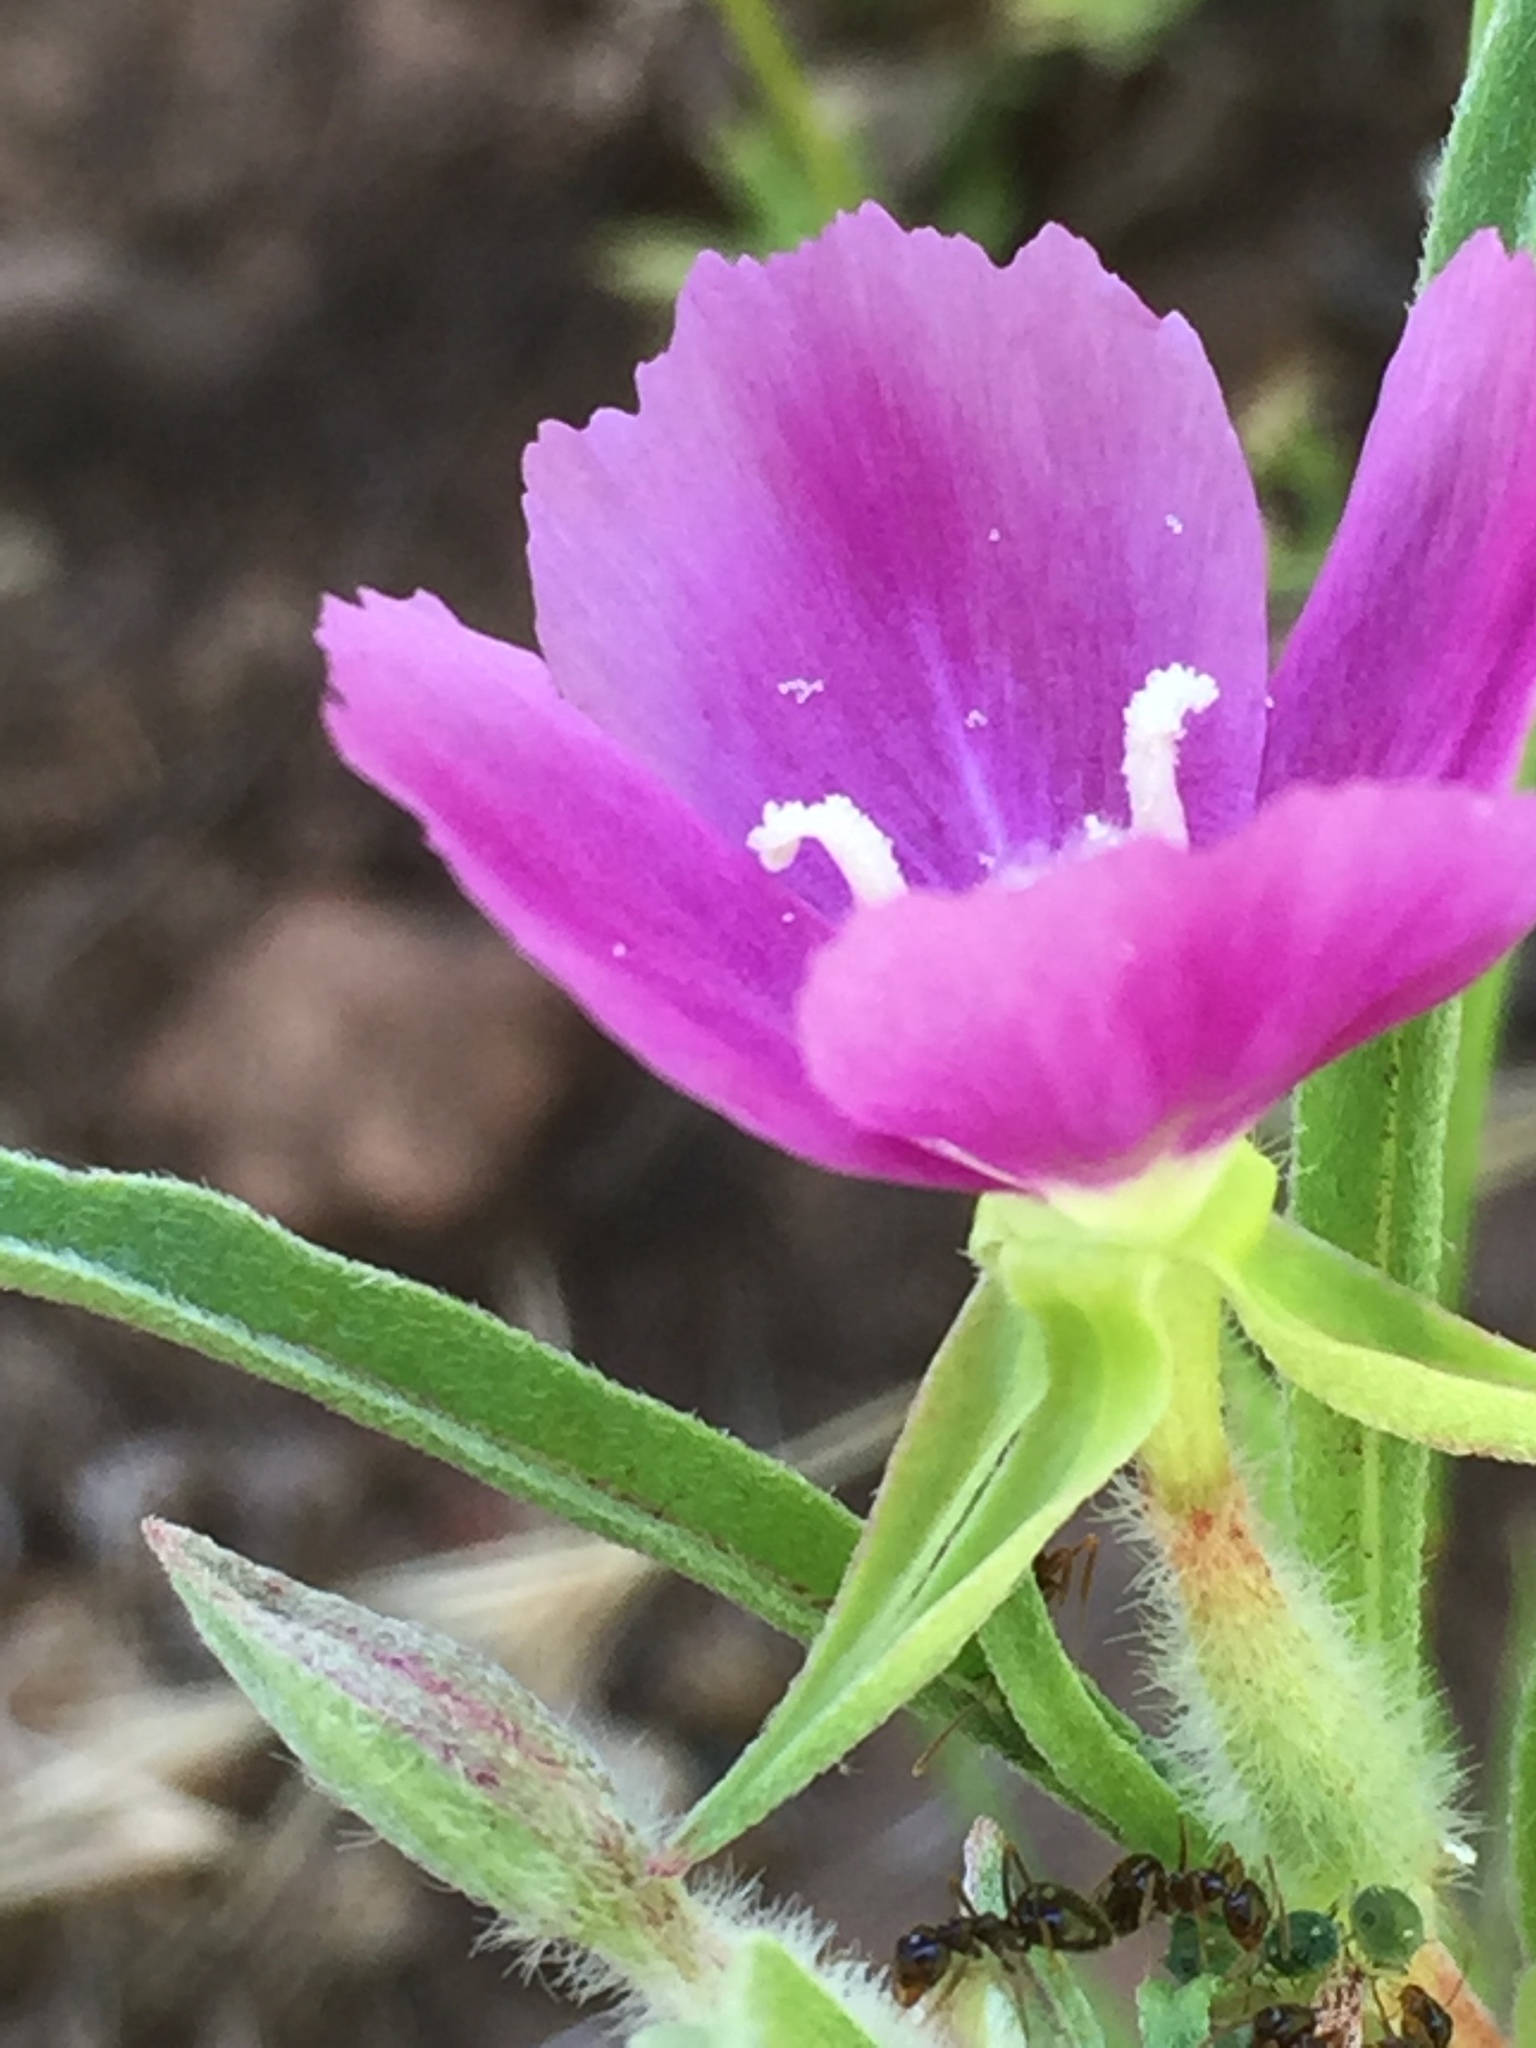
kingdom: Plantae
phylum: Tracheophyta
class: Magnoliopsida
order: Myrtales
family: Onagraceae
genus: Clarkia
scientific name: Clarkia purpurea
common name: Purple clarkia
